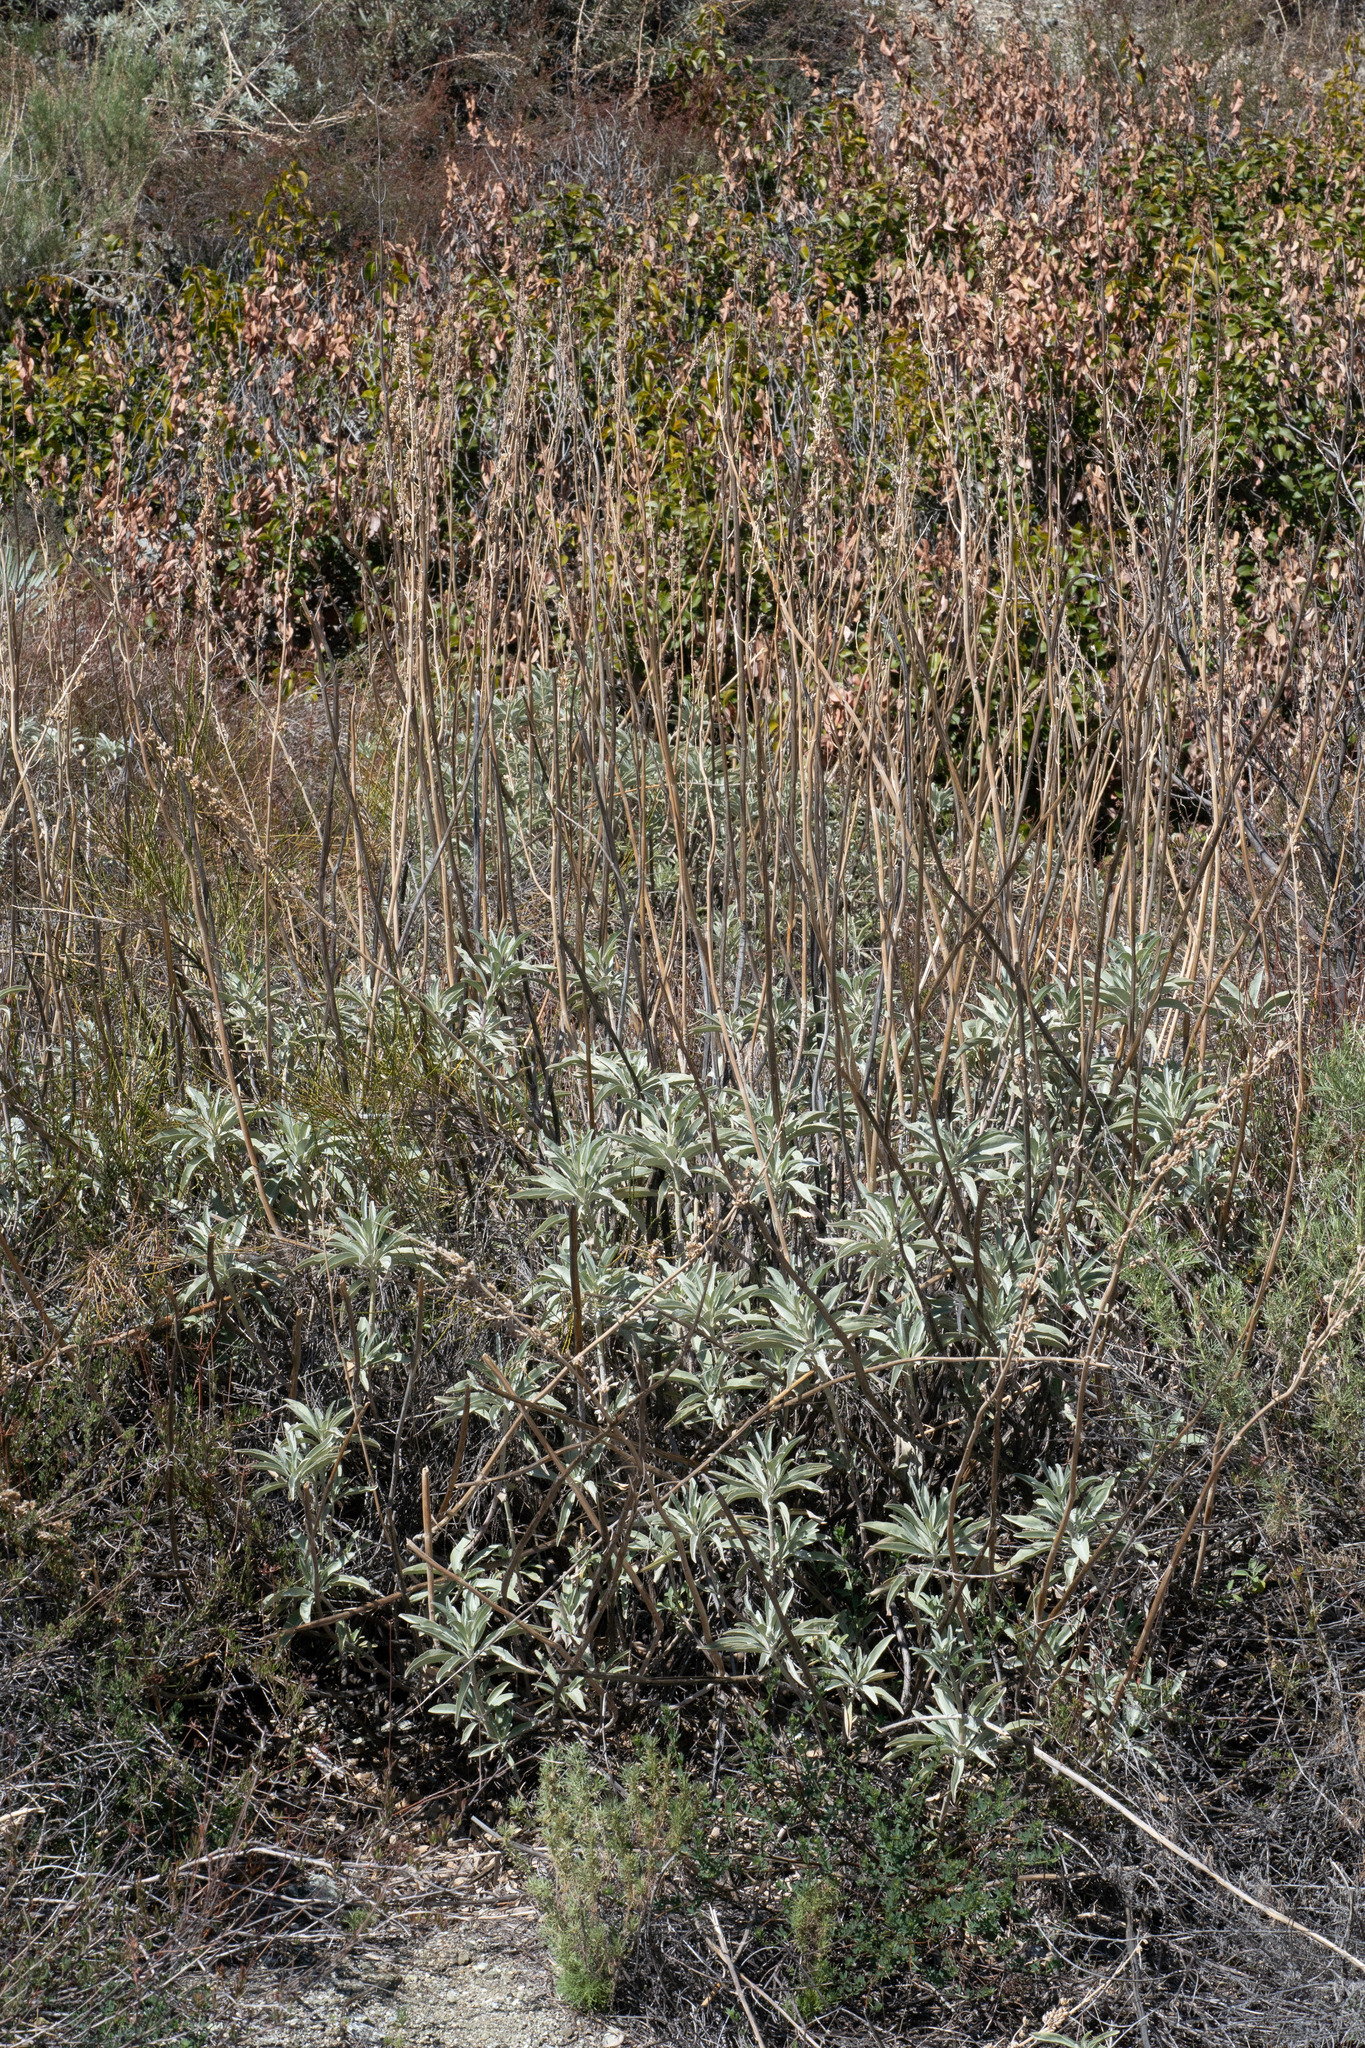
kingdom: Plantae
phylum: Tracheophyta
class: Magnoliopsida
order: Lamiales
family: Lamiaceae
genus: Salvia
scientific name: Salvia apiana
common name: White sage
